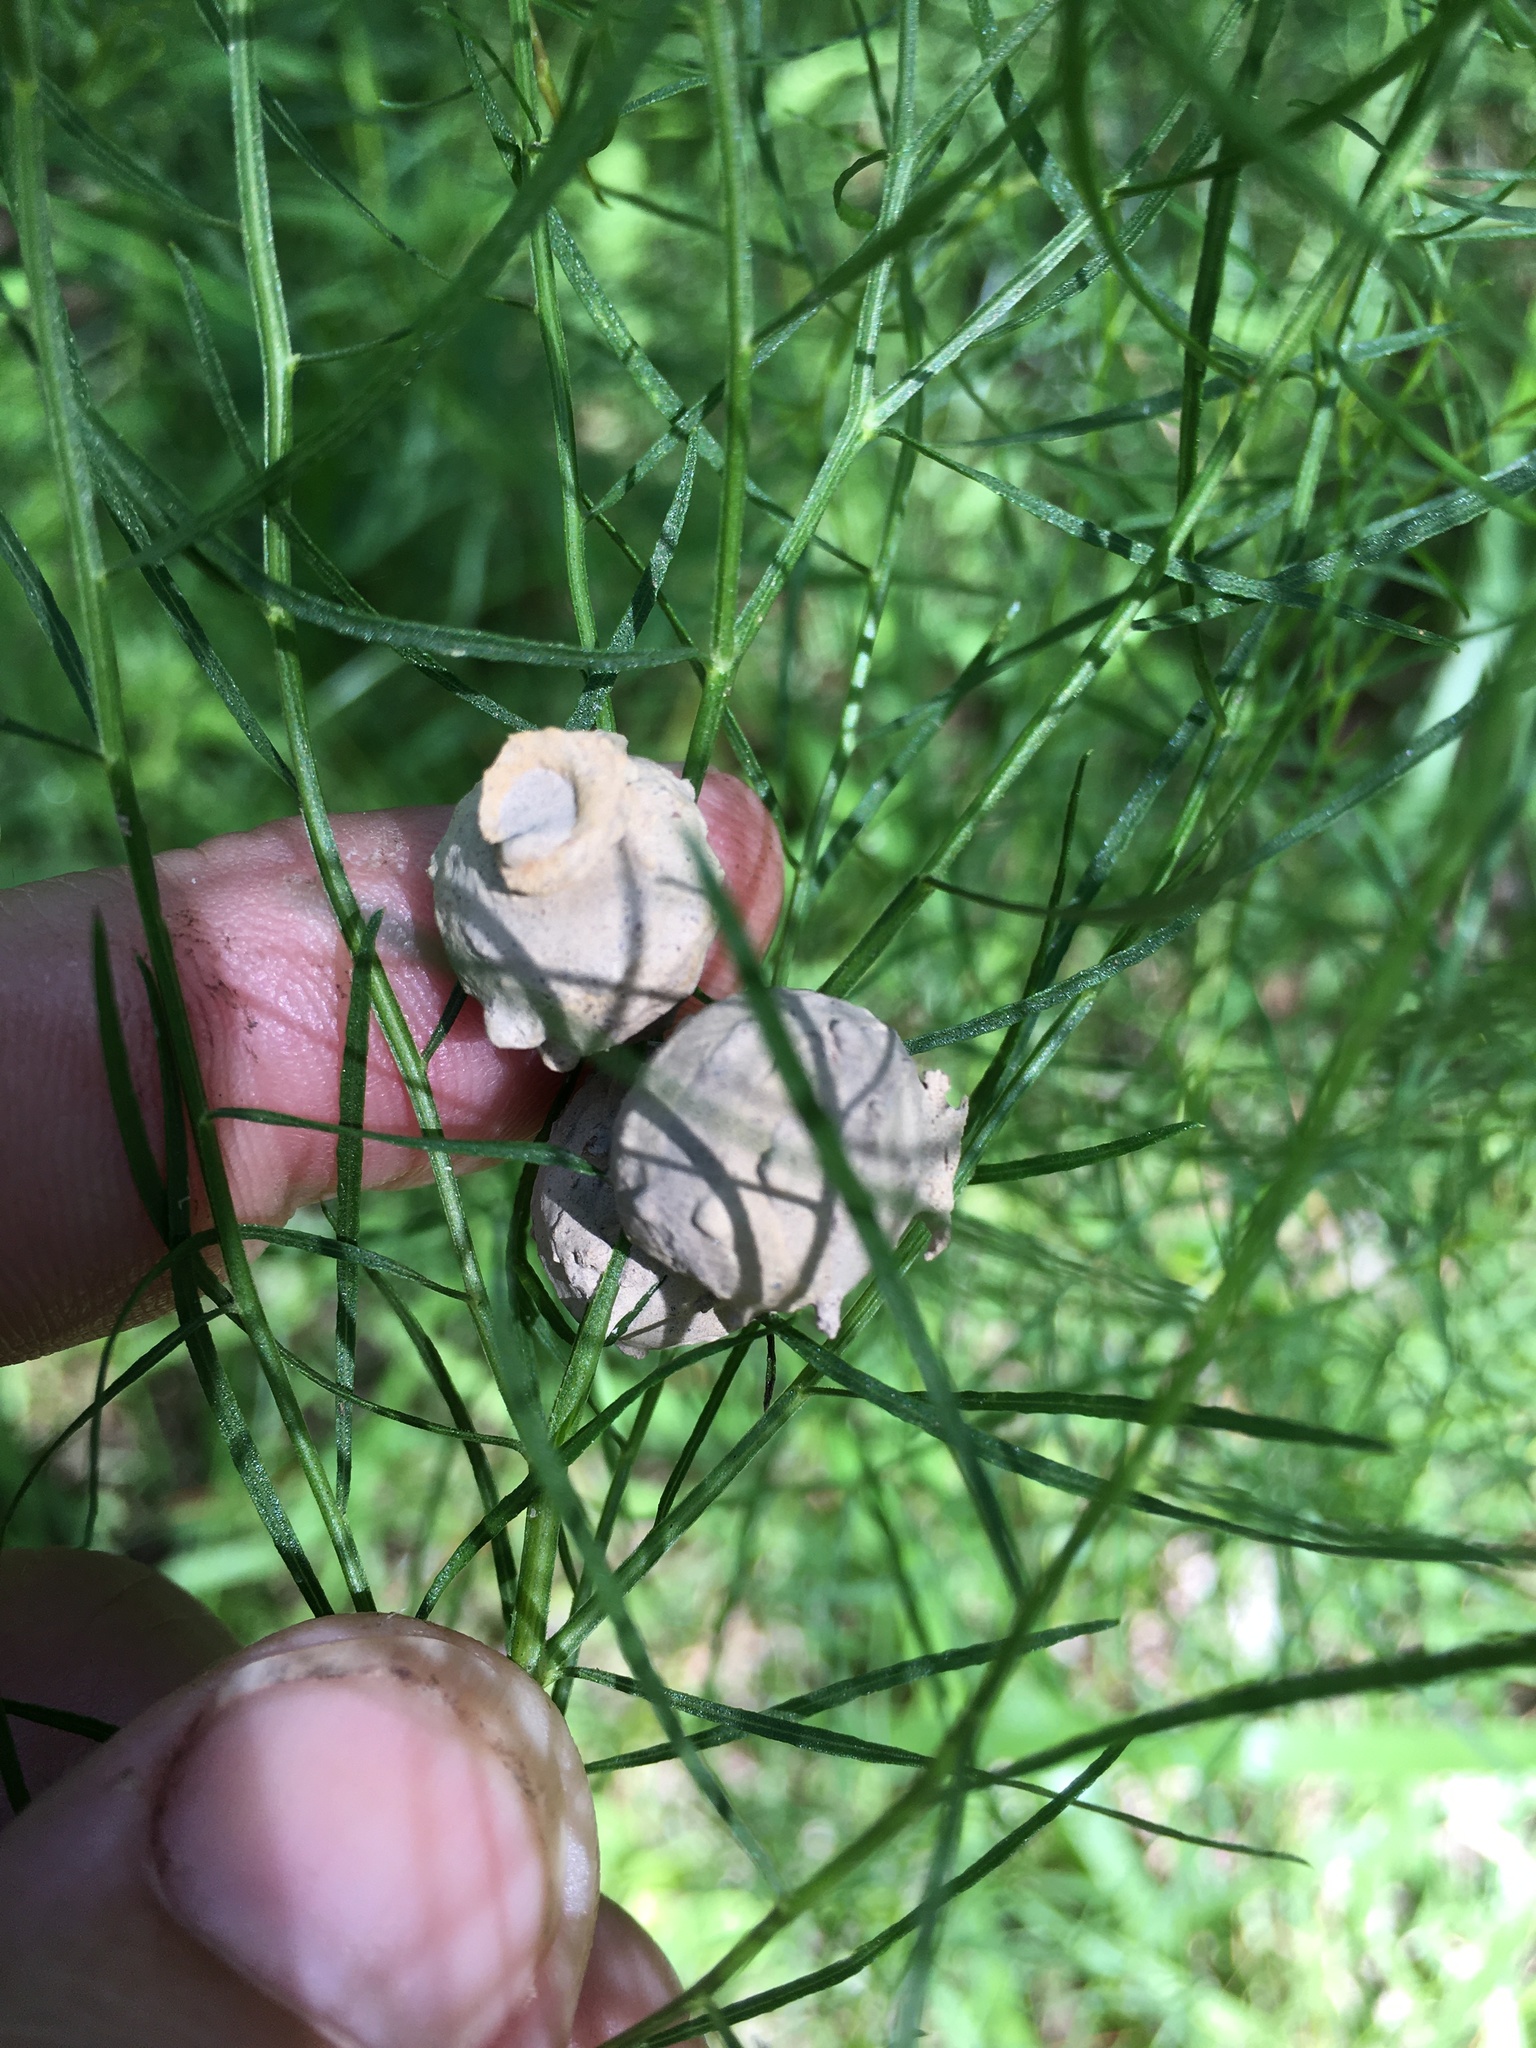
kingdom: Animalia
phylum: Arthropoda
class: Insecta
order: Hymenoptera
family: Vespidae
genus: Eumenes
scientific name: Eumenes
